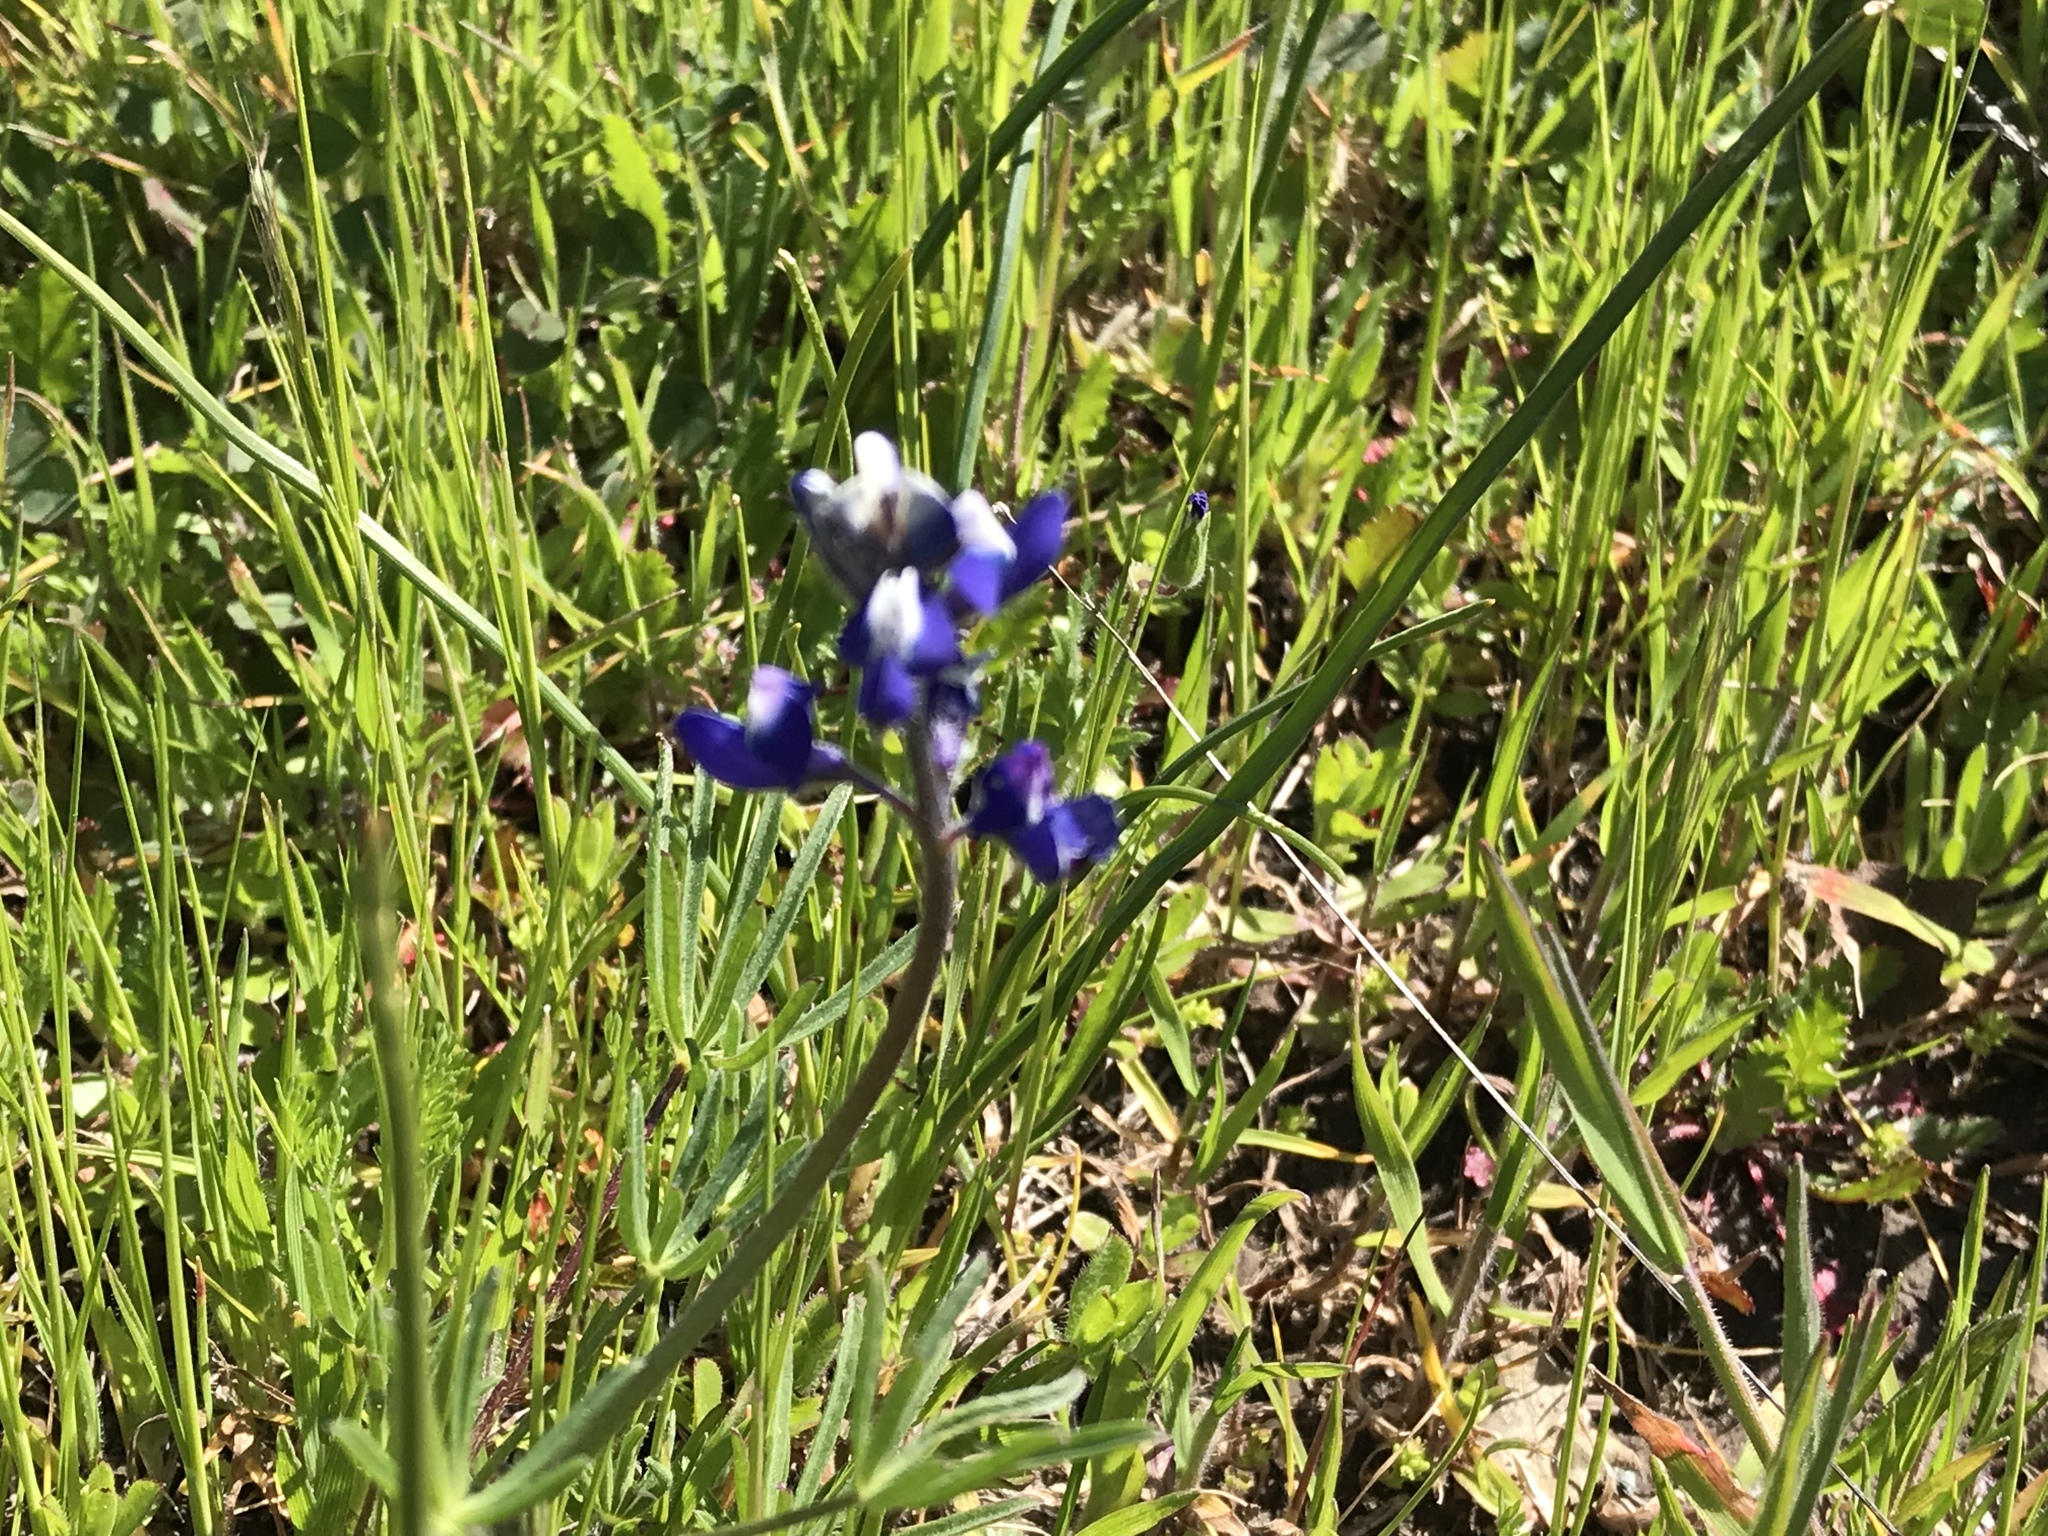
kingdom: Plantae
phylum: Tracheophyta
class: Magnoliopsida
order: Fabales
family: Fabaceae
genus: Lupinus
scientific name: Lupinus bicolor
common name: Miniature lupine
